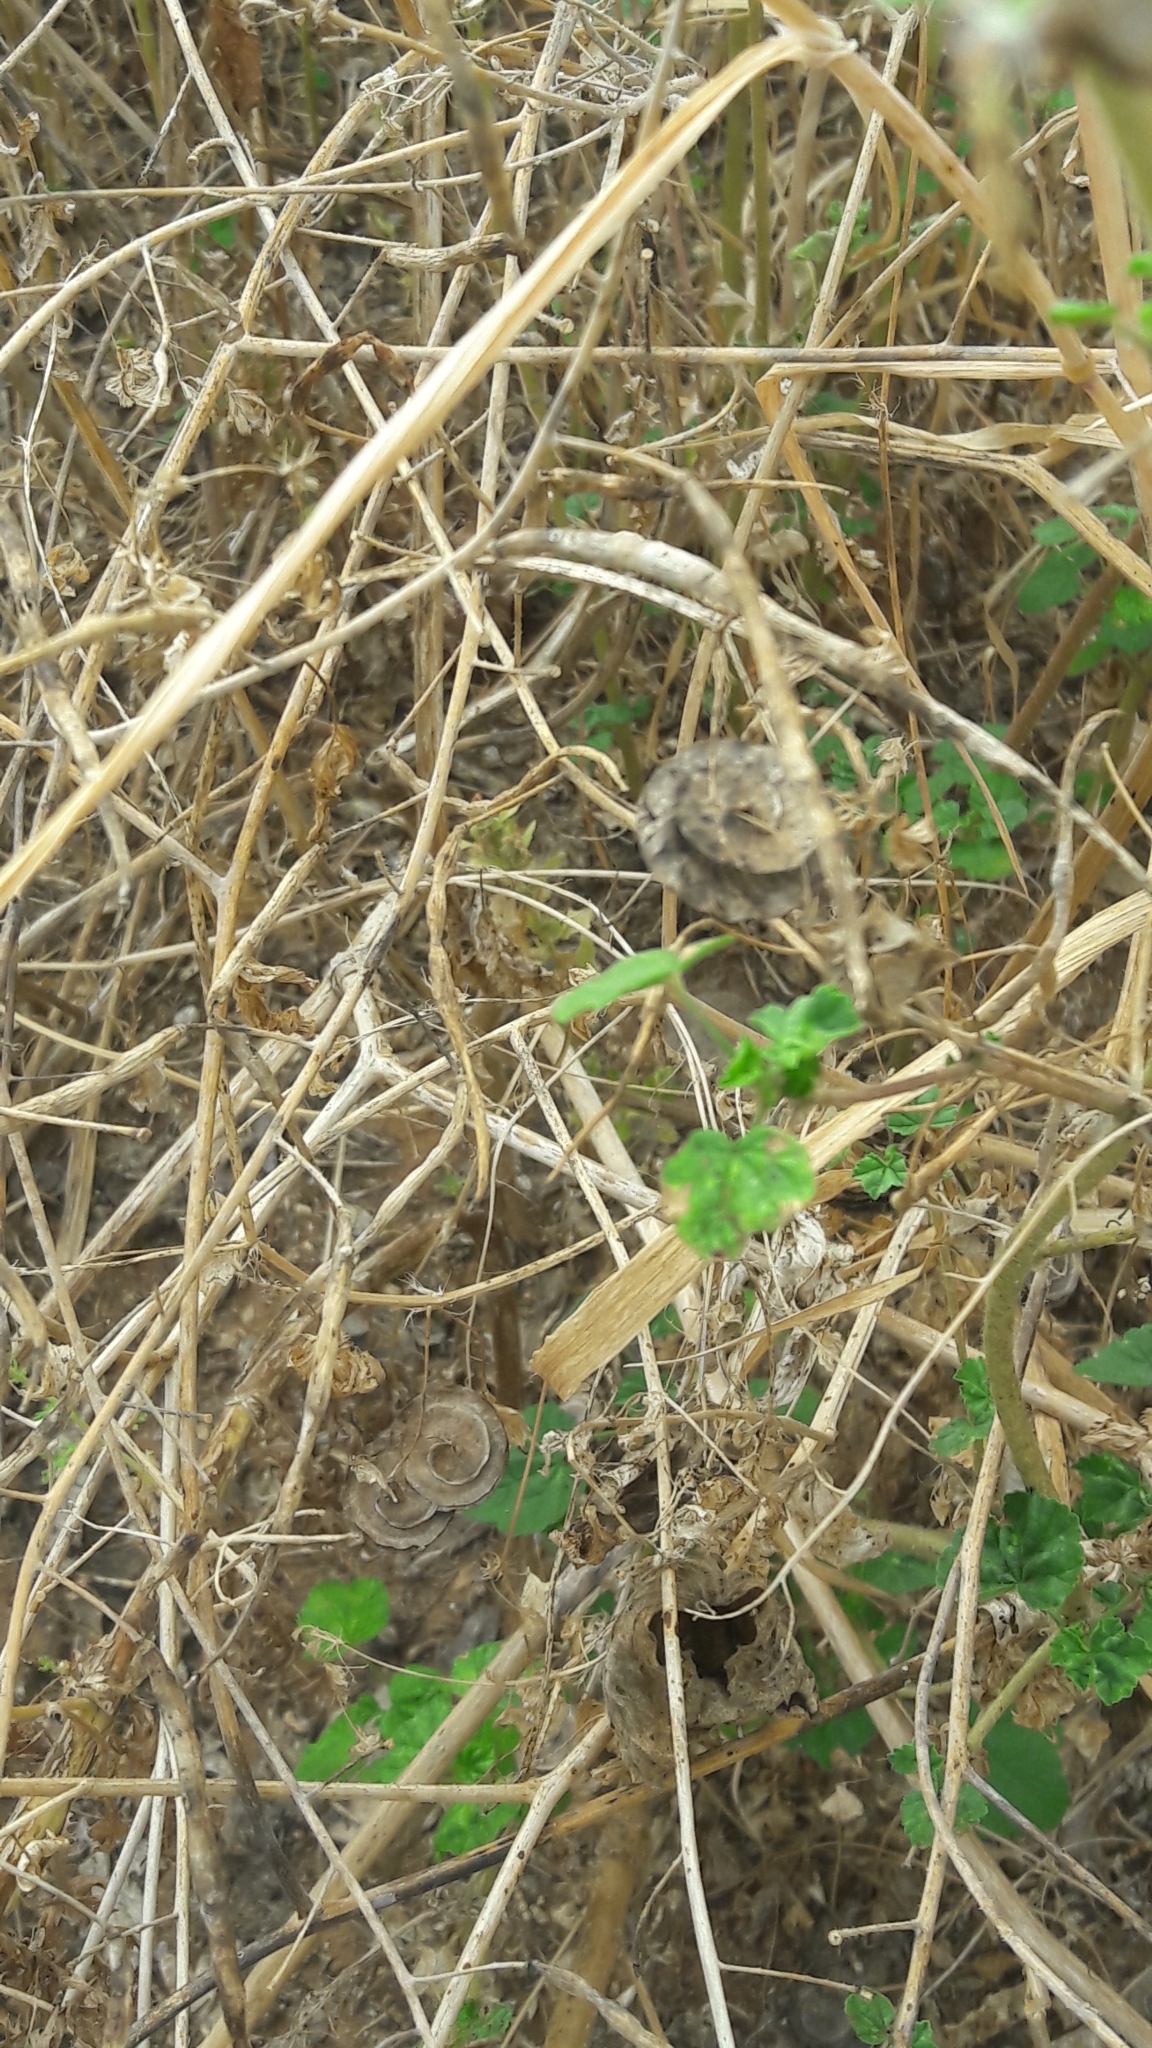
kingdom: Plantae
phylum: Tracheophyta
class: Magnoliopsida
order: Fabales
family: Fabaceae
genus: Medicago
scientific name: Medicago orbicularis
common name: Button medick
